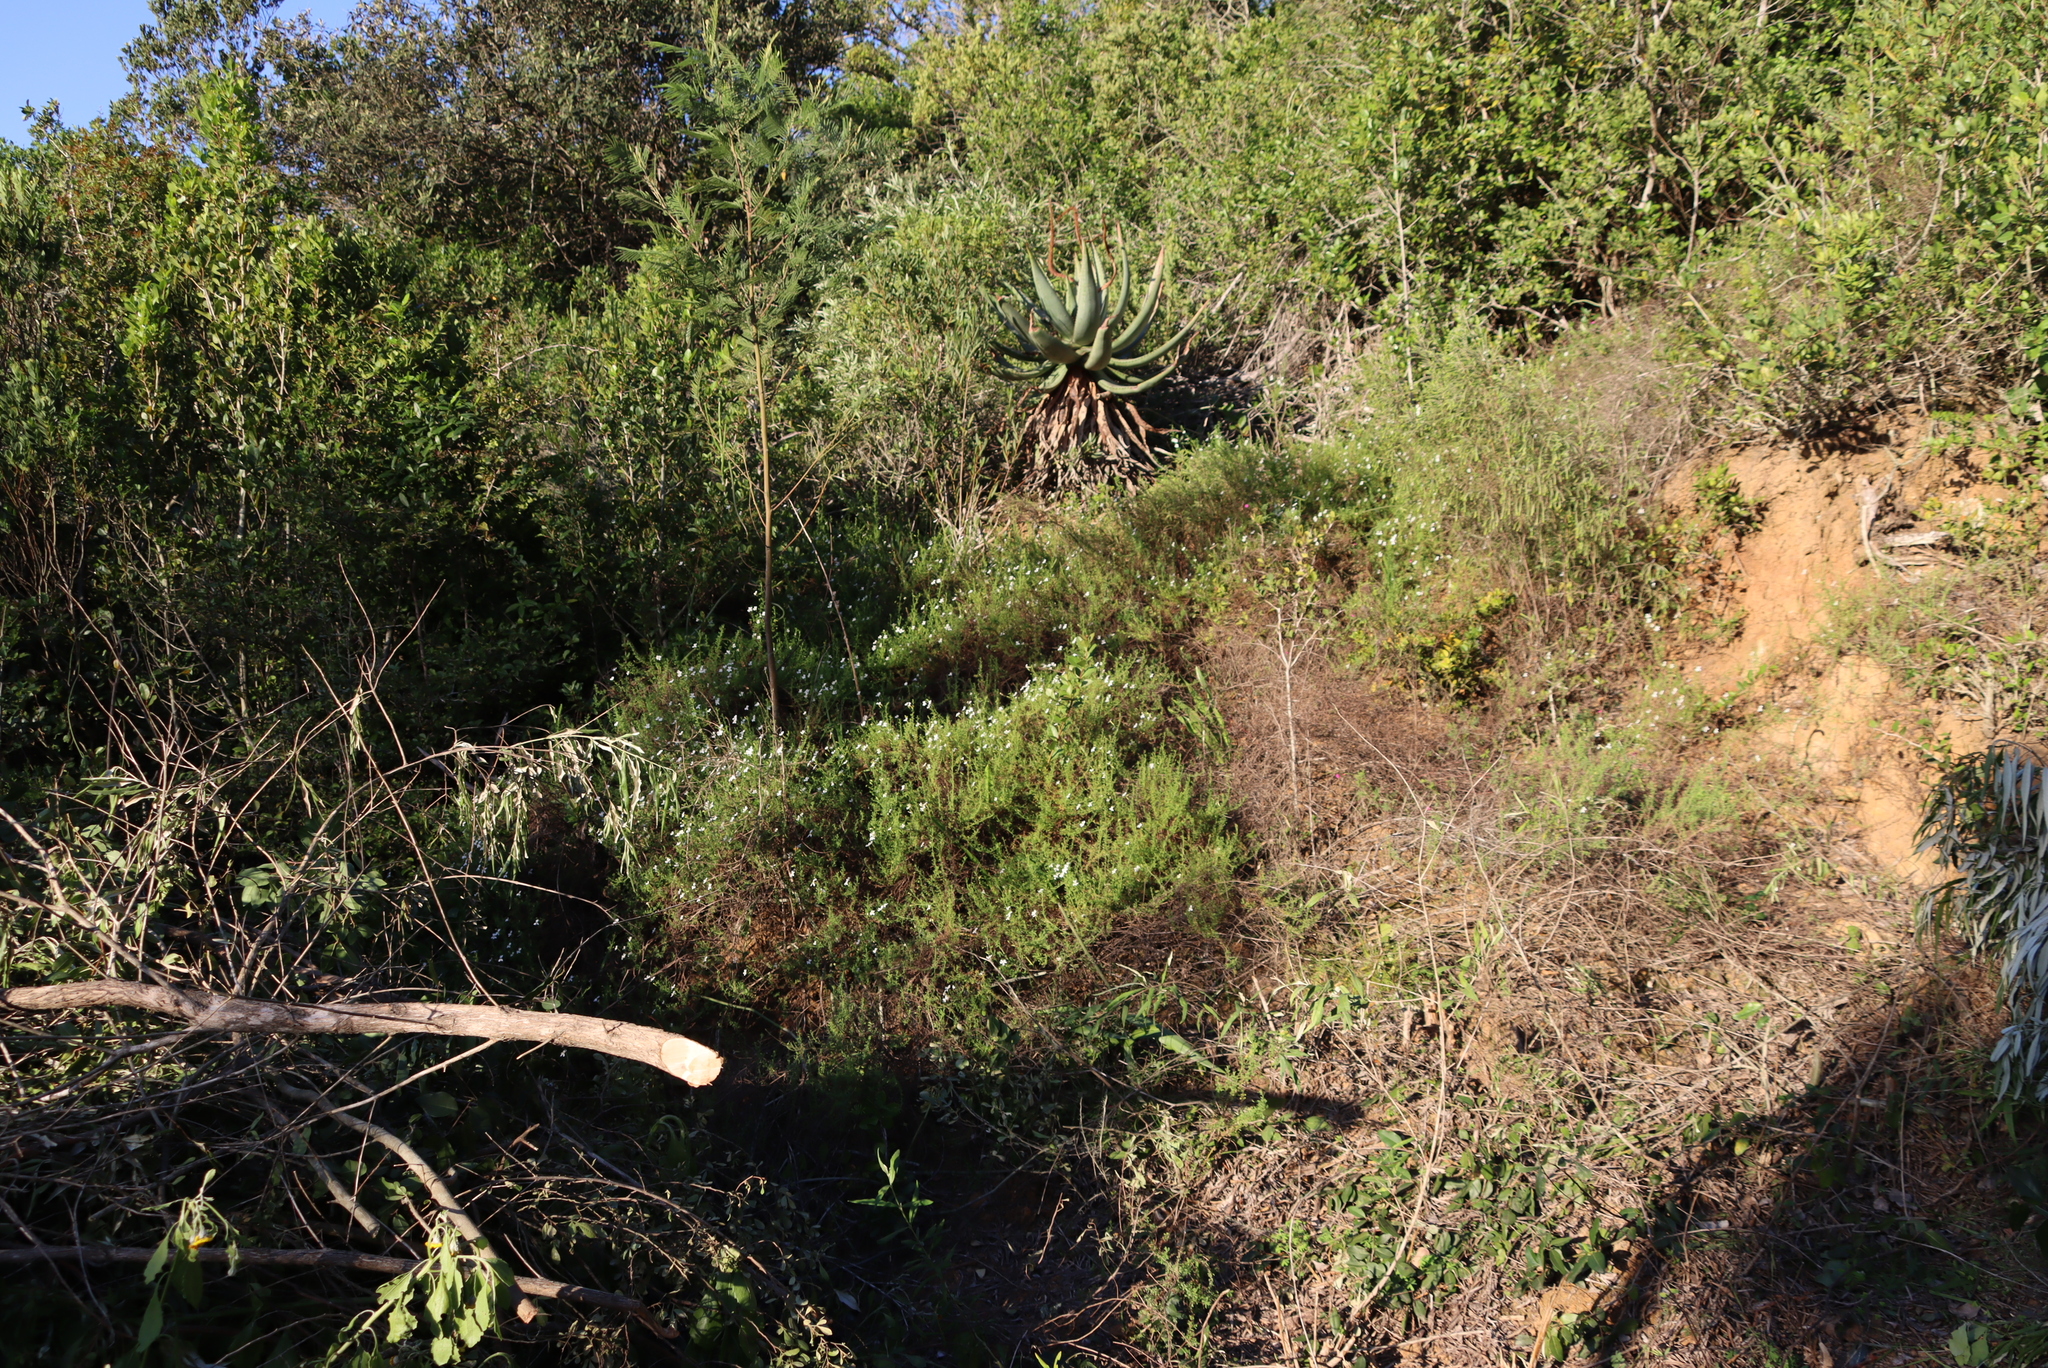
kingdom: Plantae
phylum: Tracheophyta
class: Liliopsida
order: Asparagales
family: Asphodelaceae
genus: Aloe
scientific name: Aloe ferox
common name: Bitter aloe
